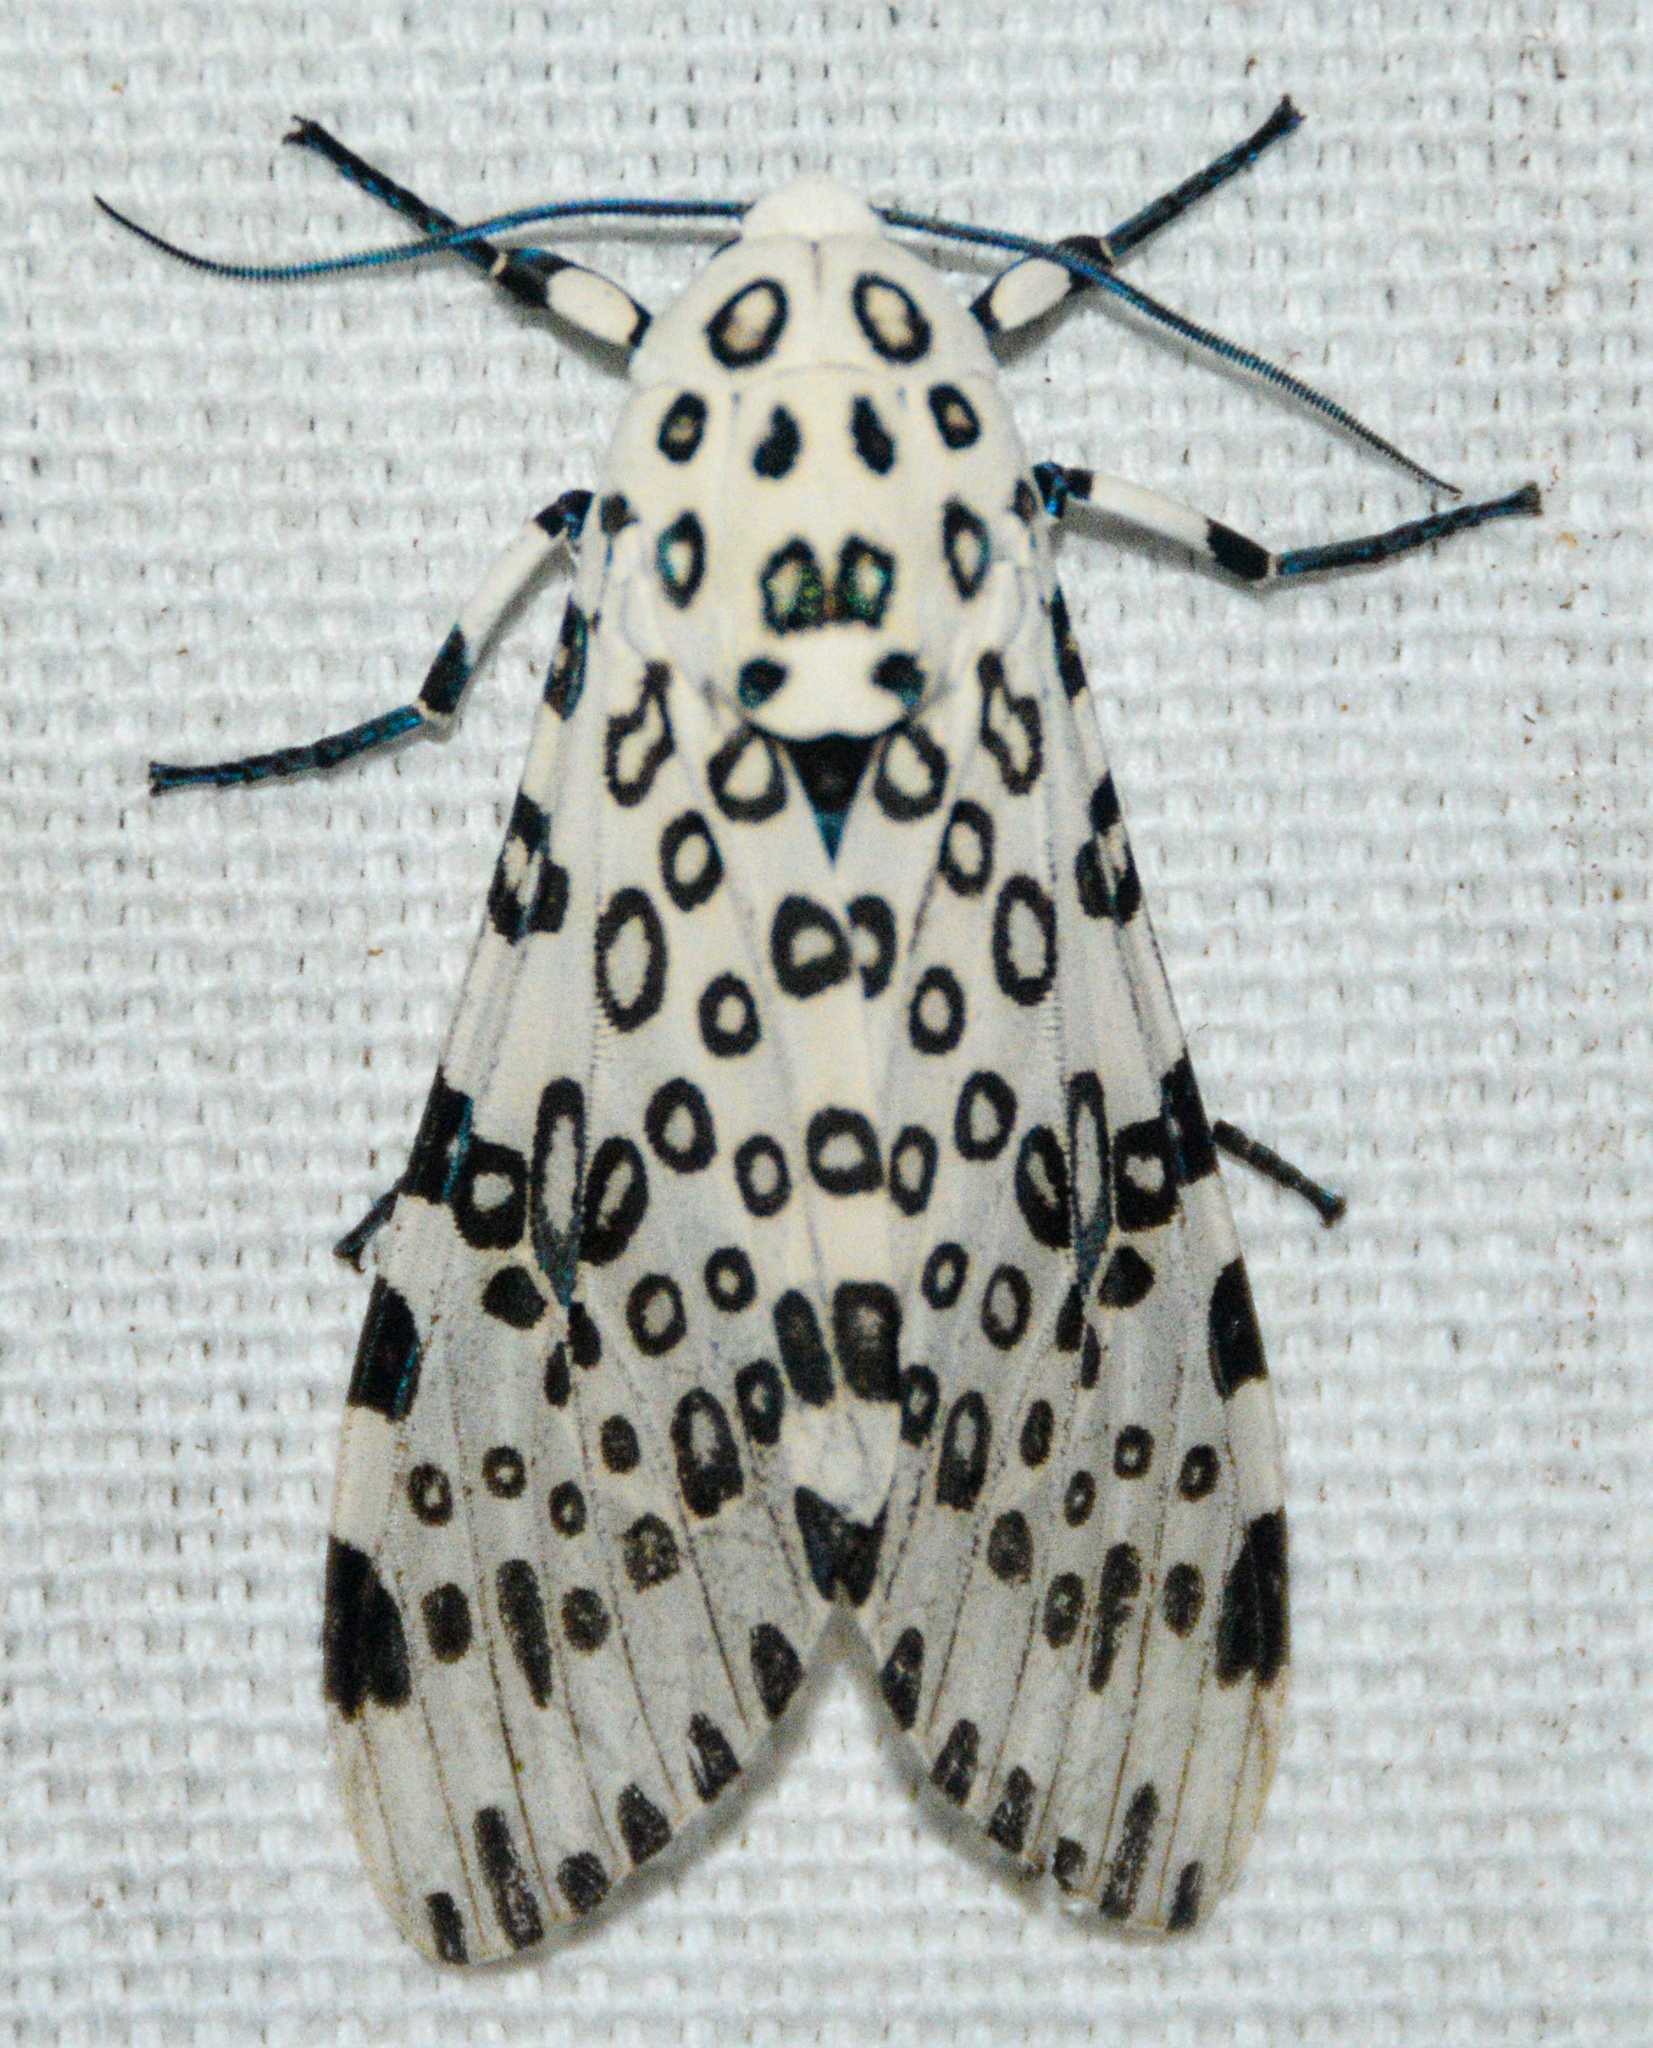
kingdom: Animalia
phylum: Arthropoda
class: Insecta
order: Lepidoptera
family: Erebidae
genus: Hypercompe
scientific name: Hypercompe scribonia
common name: Giant leopard moth
